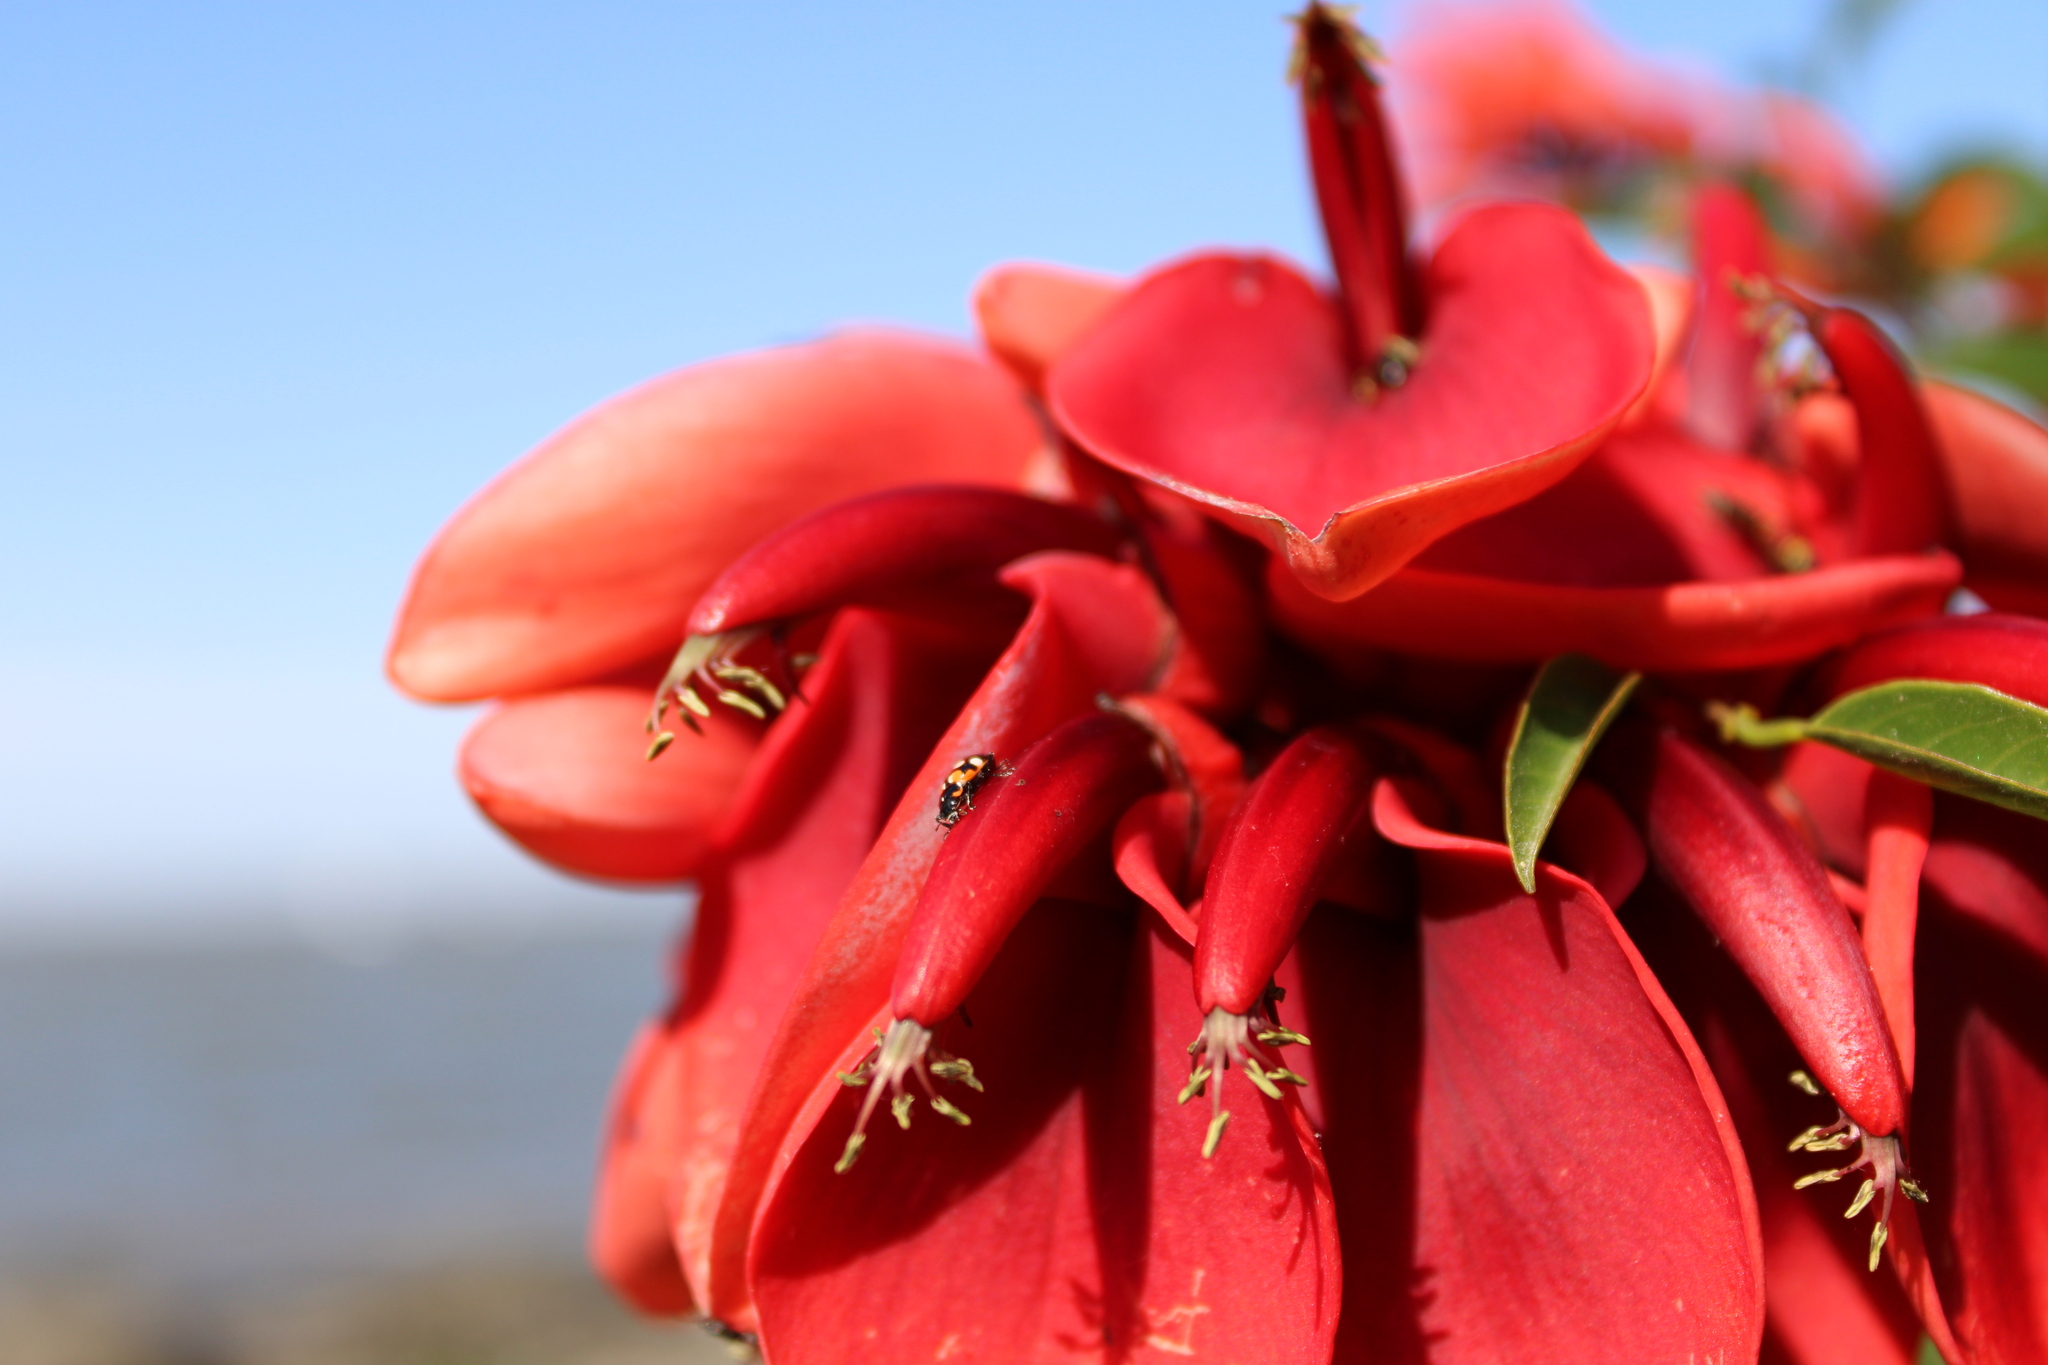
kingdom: Plantae
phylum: Tracheophyta
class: Magnoliopsida
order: Fabales
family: Fabaceae
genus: Erythrina
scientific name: Erythrina crista-galli
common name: Cockspur coral tree
